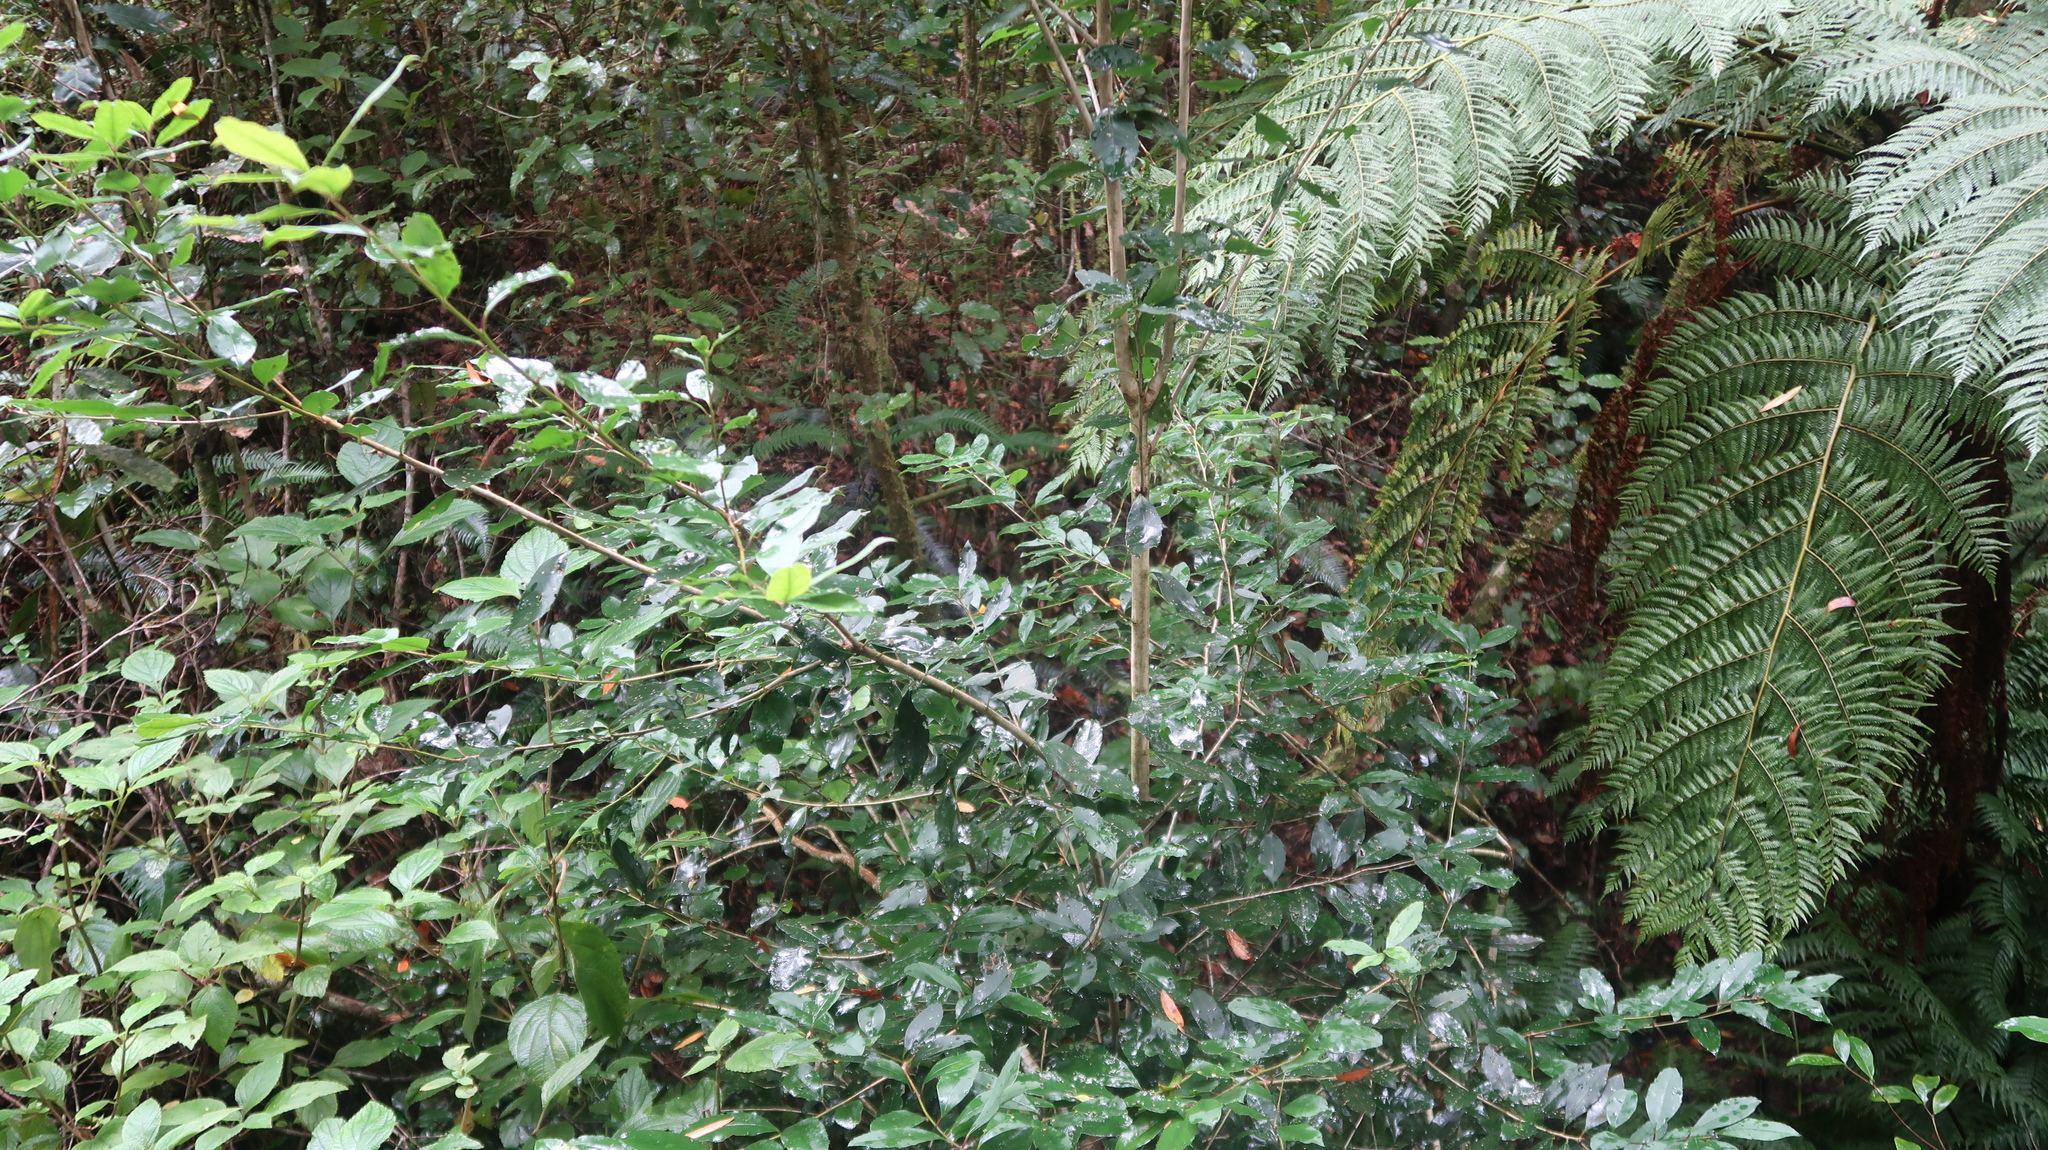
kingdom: Plantae
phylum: Tracheophyta
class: Magnoliopsida
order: Aquifoliales
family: Aquifoliaceae
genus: Ilex
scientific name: Ilex mitis
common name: African holly
